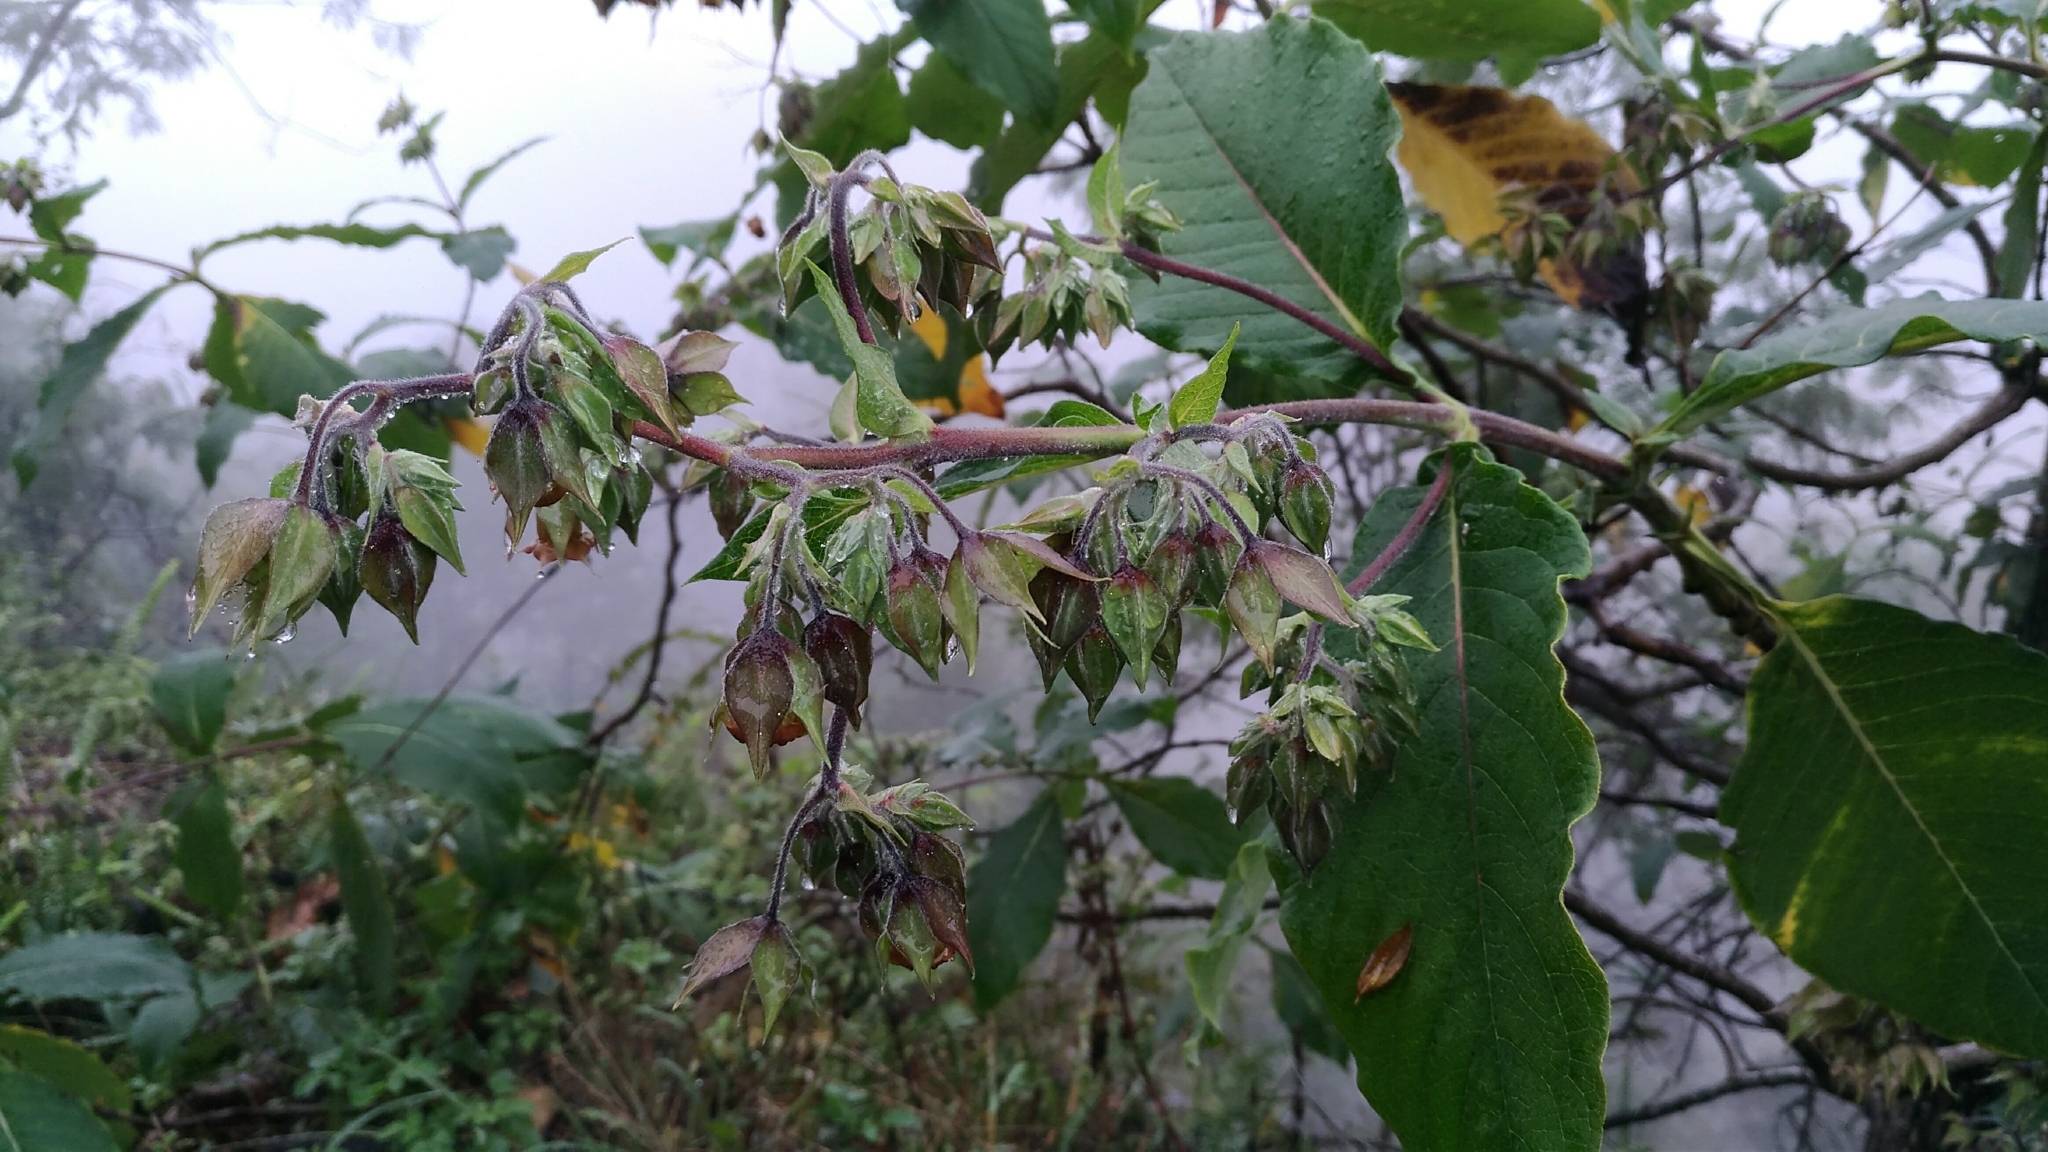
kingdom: Plantae
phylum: Tracheophyta
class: Magnoliopsida
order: Boraginales
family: Boraginaceae
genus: Trichodesma
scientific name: Trichodesma calycosum
